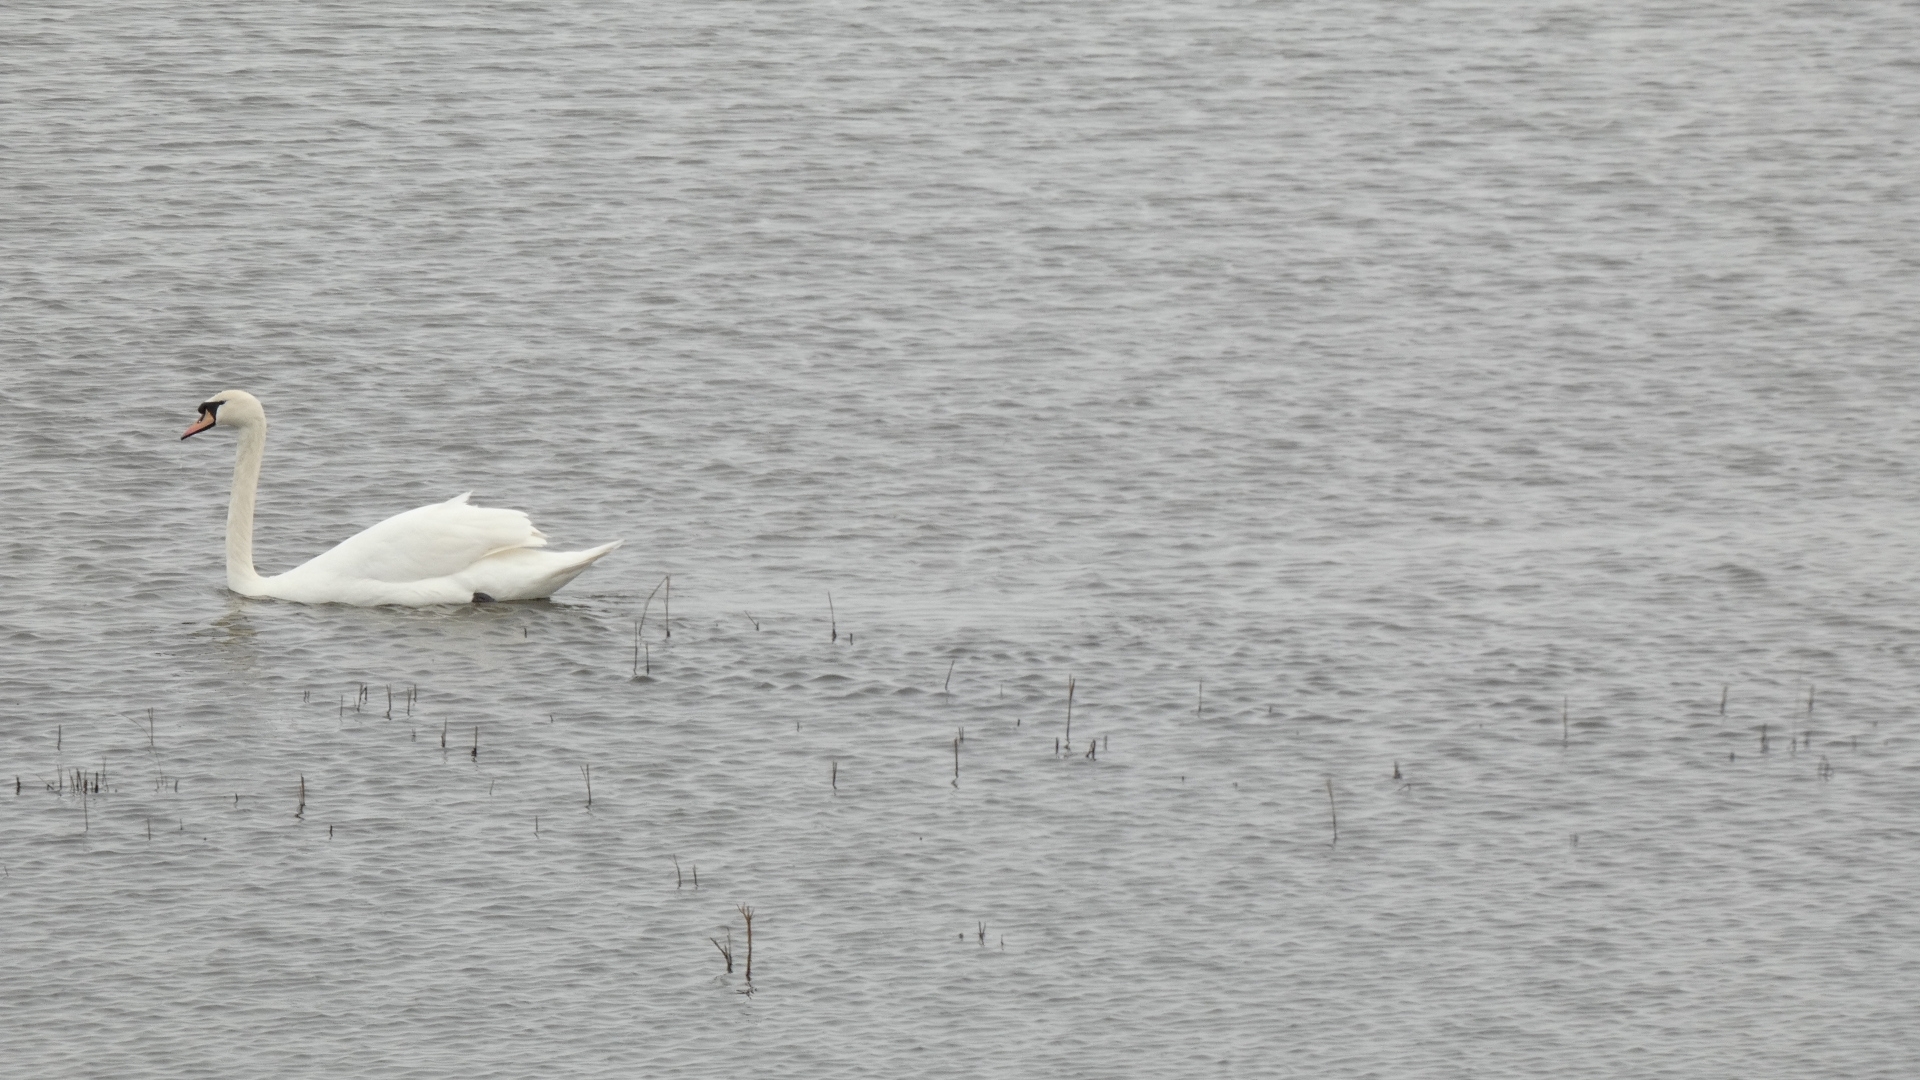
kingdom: Animalia
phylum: Chordata
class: Aves
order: Anseriformes
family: Anatidae
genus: Cygnus
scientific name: Cygnus olor
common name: Mute swan
